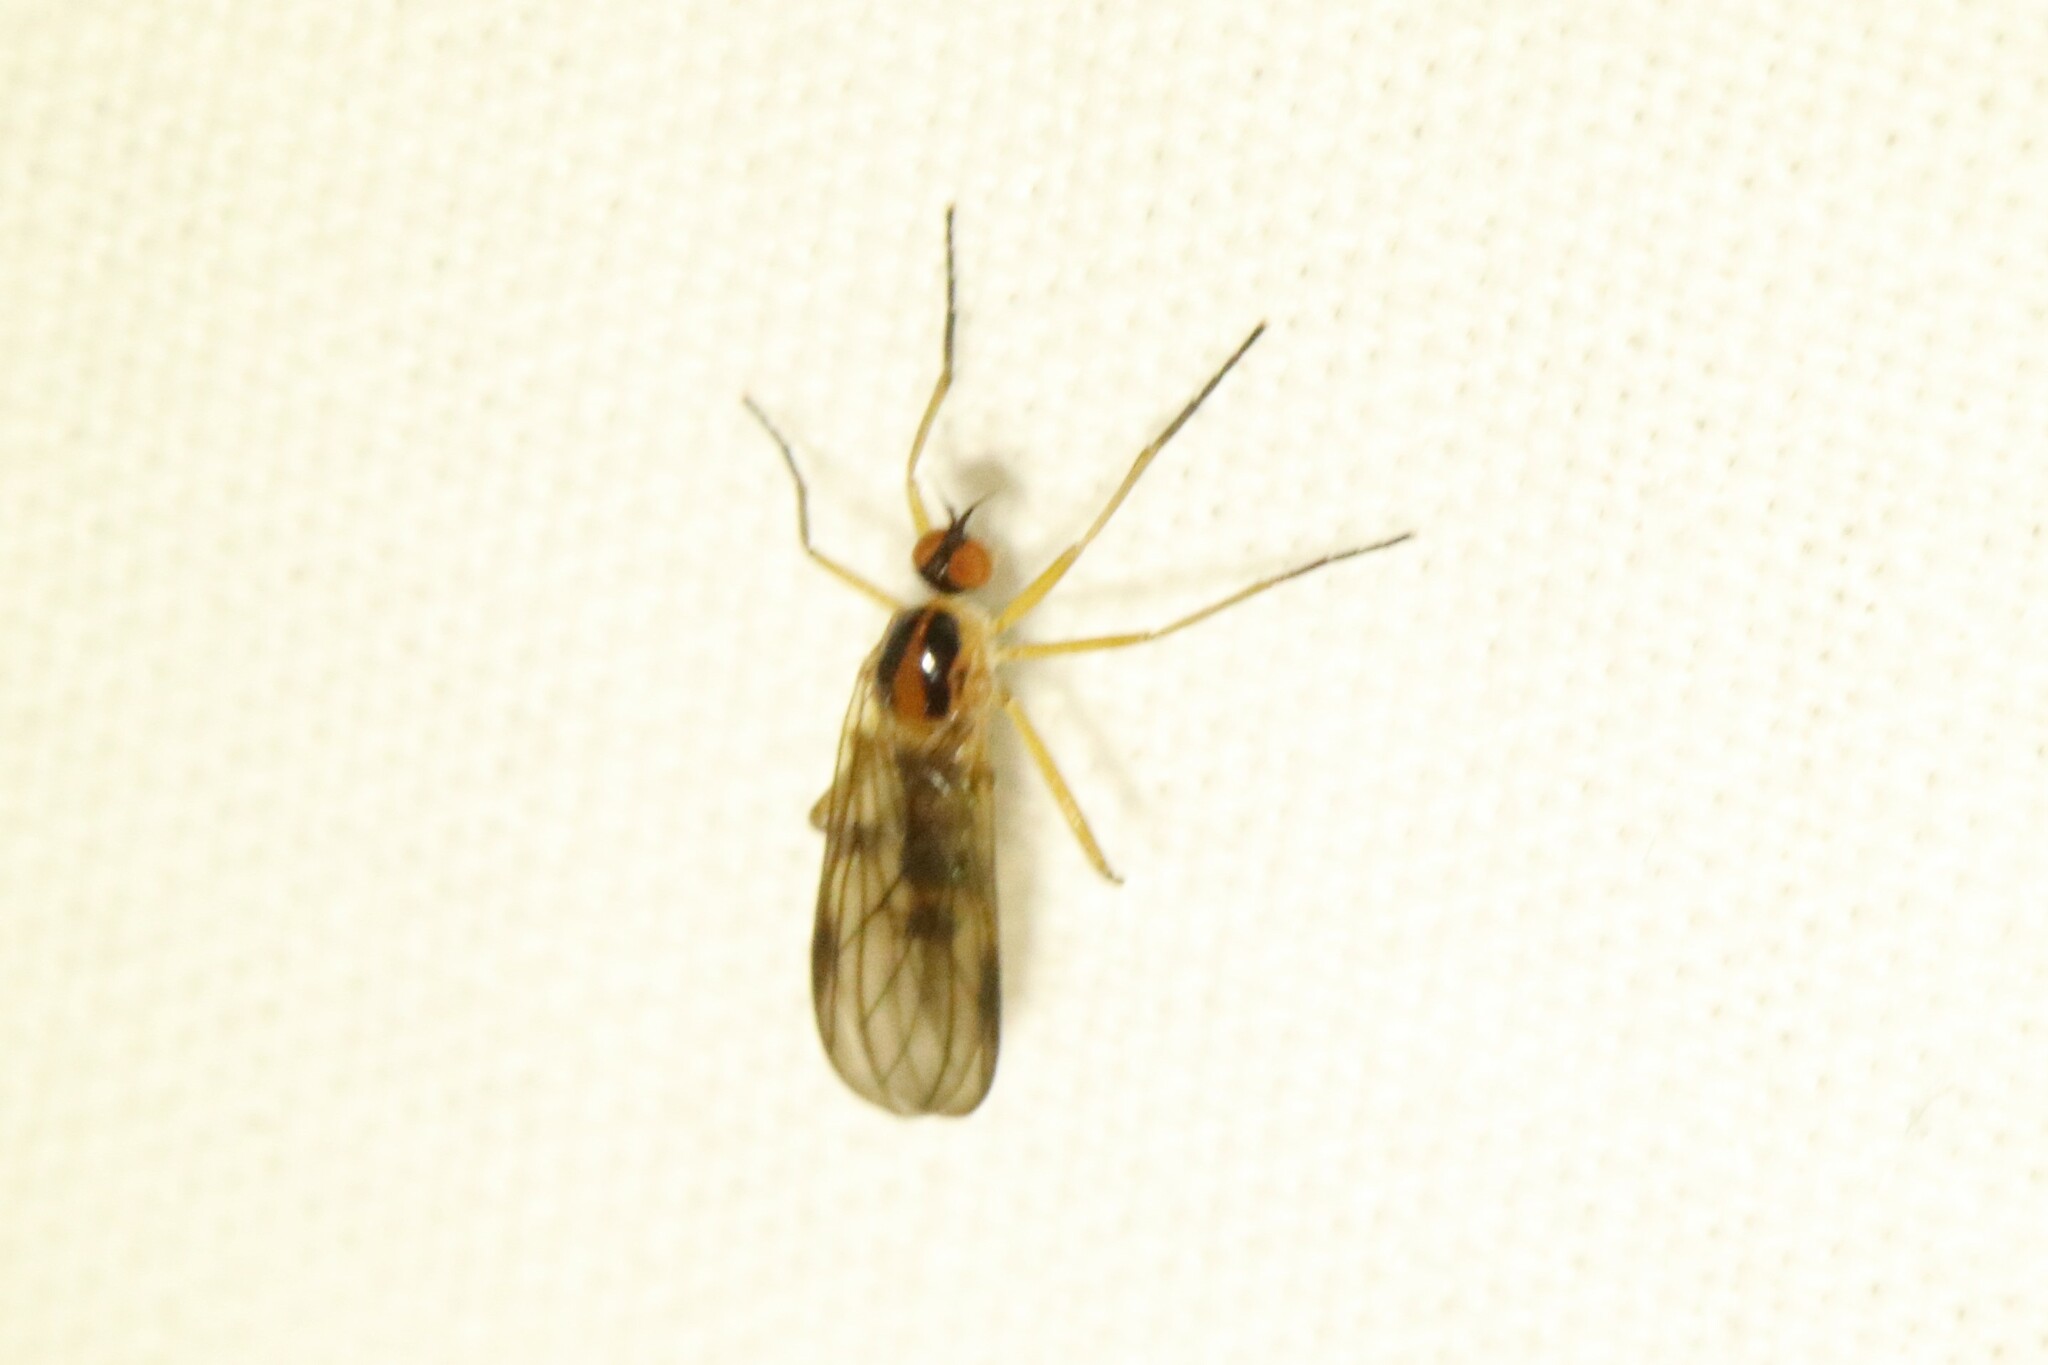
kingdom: Animalia
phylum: Arthropoda
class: Insecta
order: Diptera
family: Empididae
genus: Rhamphomyia
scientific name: Rhamphomyia vittata
